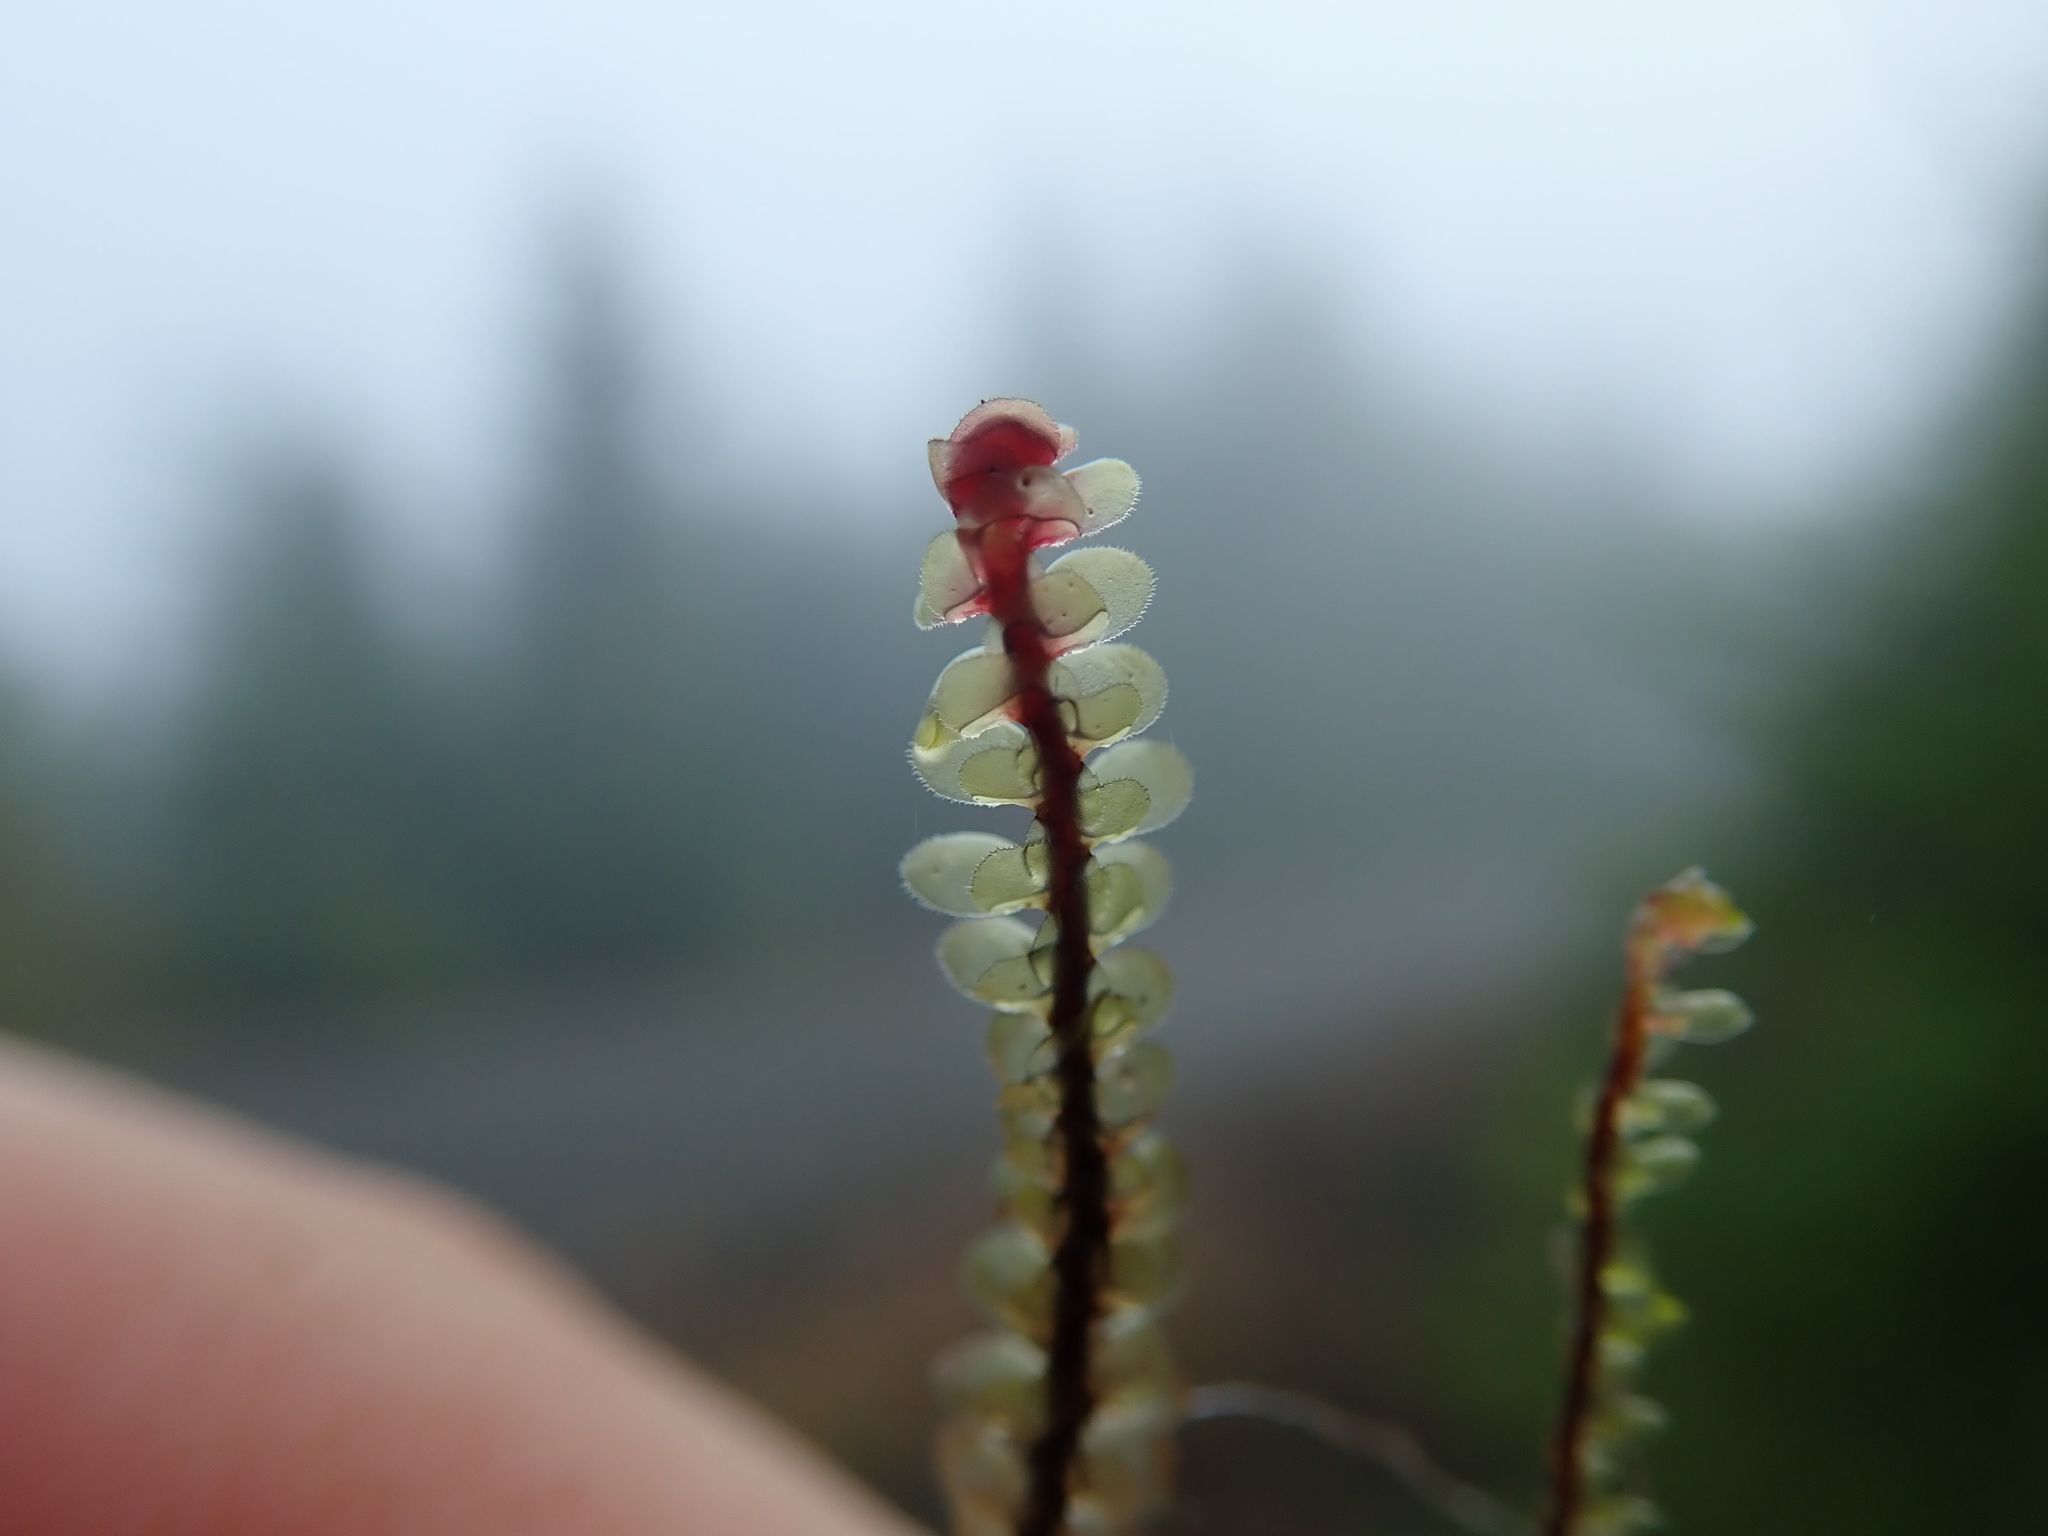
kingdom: Plantae
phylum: Marchantiophyta
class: Jungermanniopsida
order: Jungermanniales
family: Scapaniaceae
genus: Scapania
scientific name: Scapania americana
